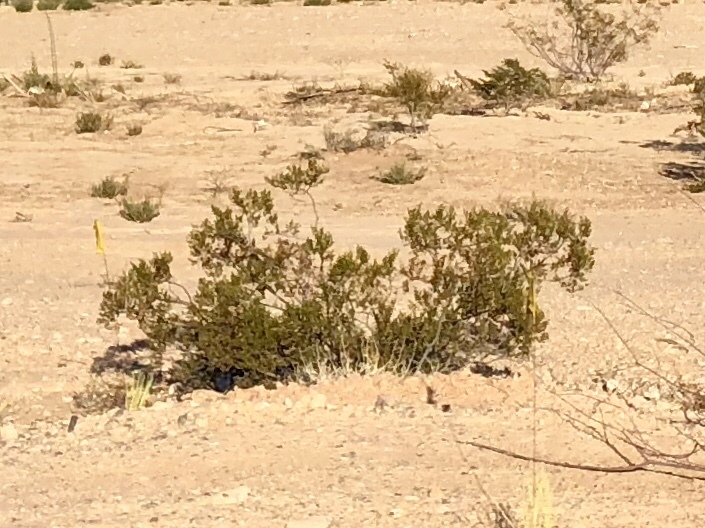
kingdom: Plantae
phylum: Tracheophyta
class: Magnoliopsida
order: Zygophyllales
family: Zygophyllaceae
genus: Larrea
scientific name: Larrea tridentata
